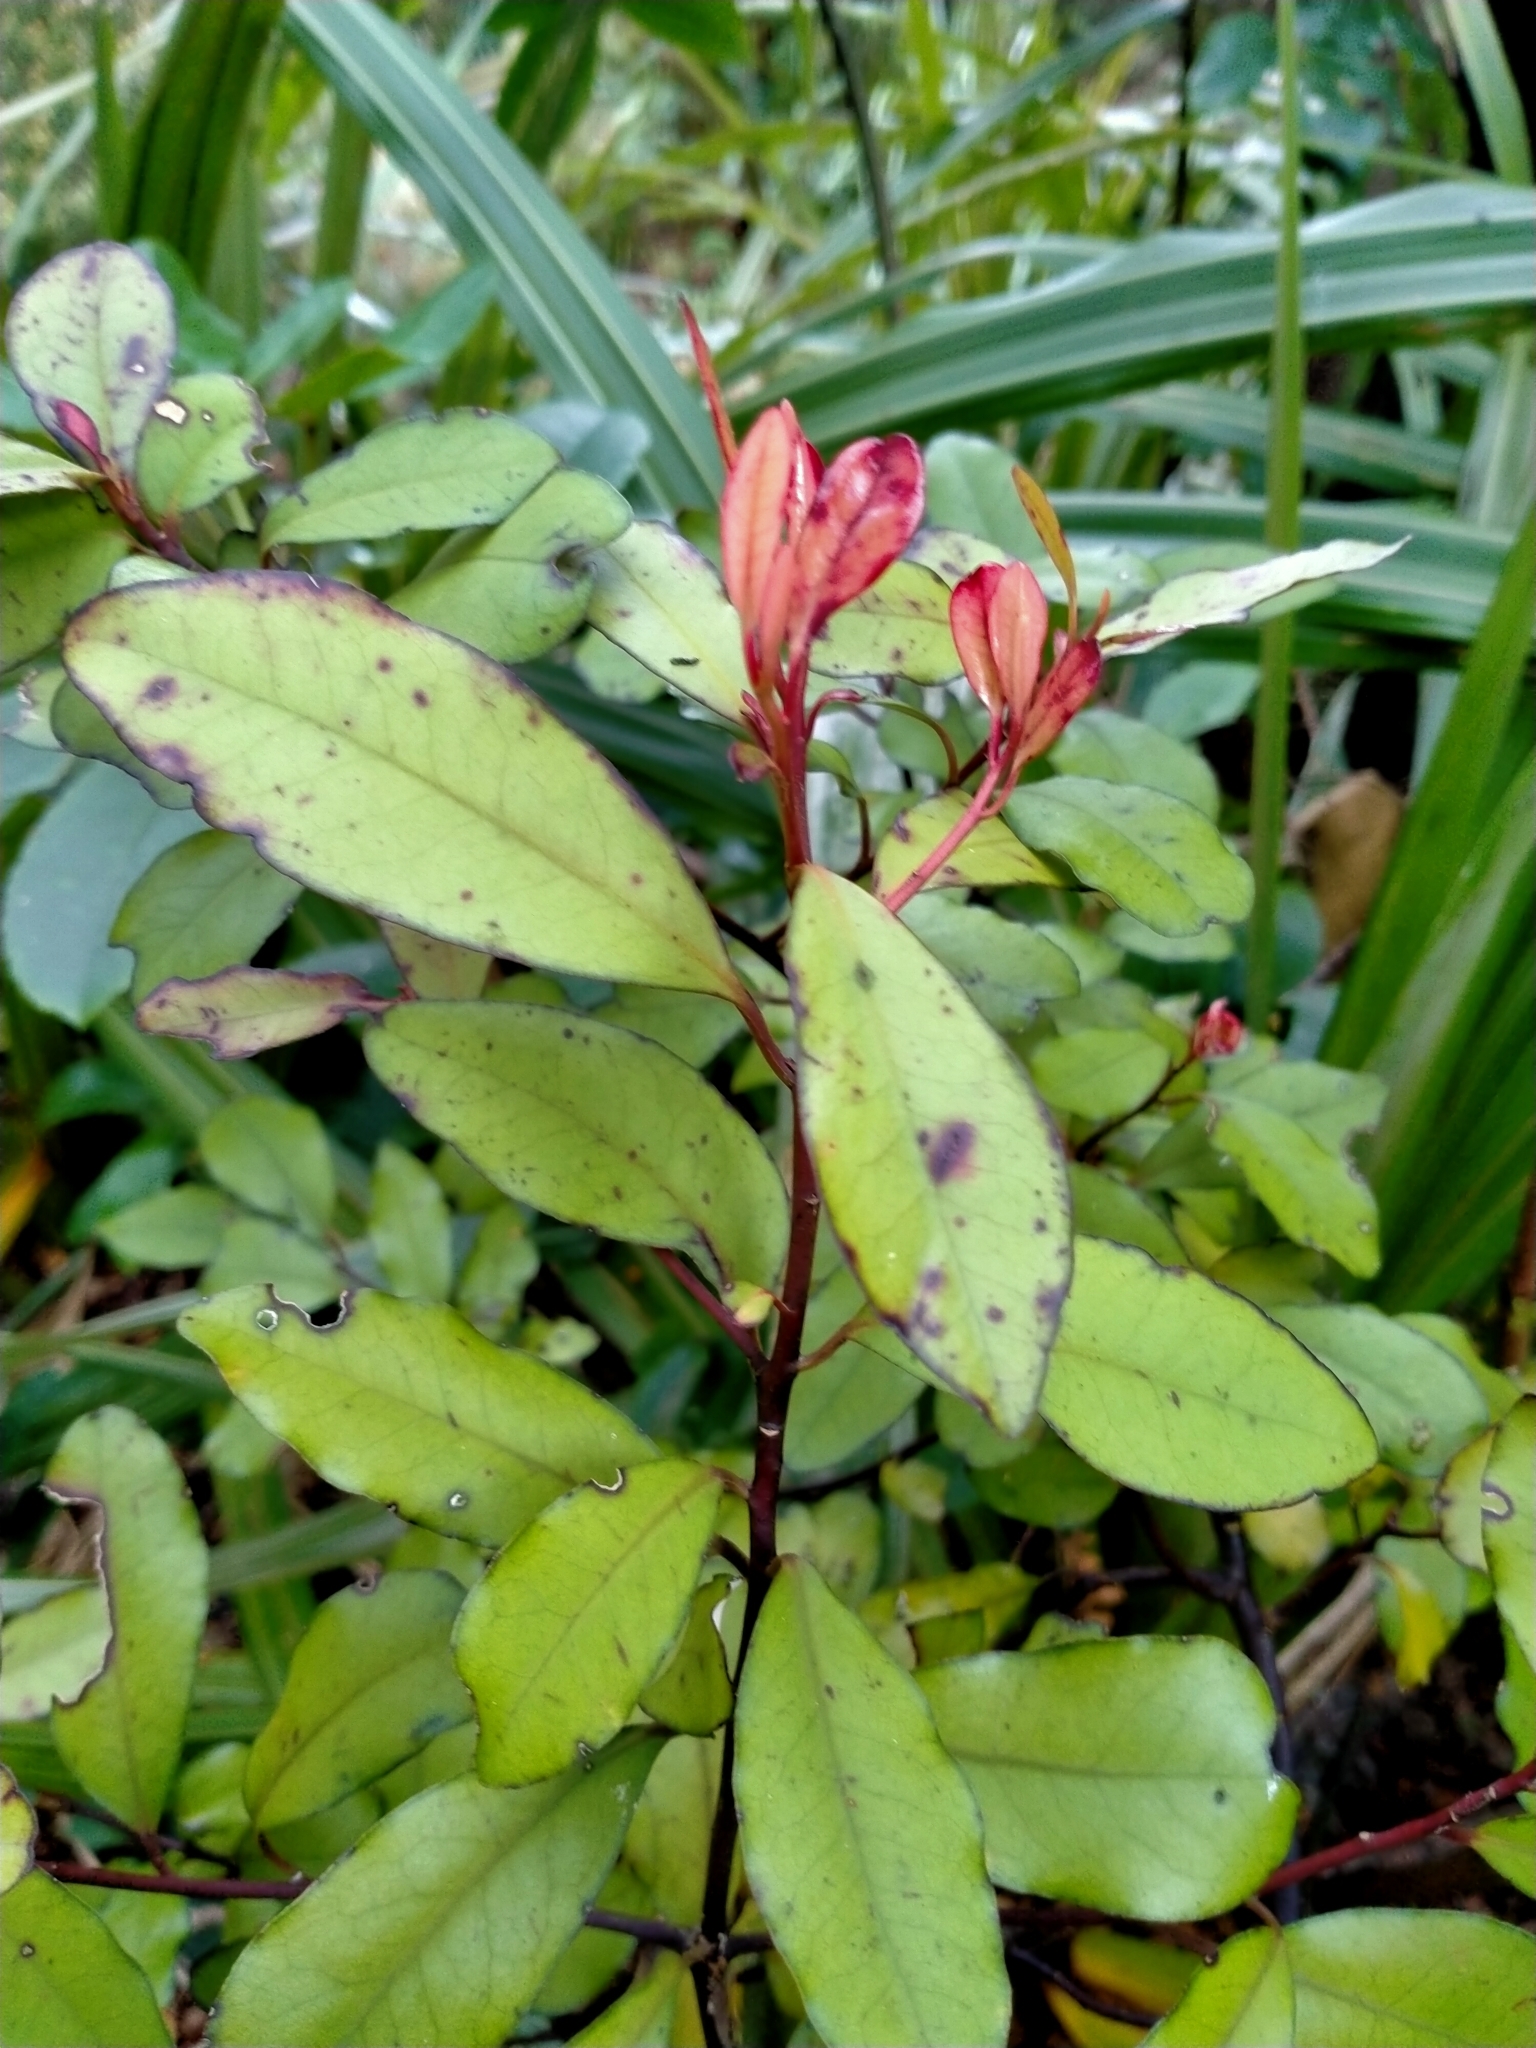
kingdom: Plantae
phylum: Tracheophyta
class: Magnoliopsida
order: Canellales
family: Winteraceae
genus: Pseudowintera
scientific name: Pseudowintera colorata
